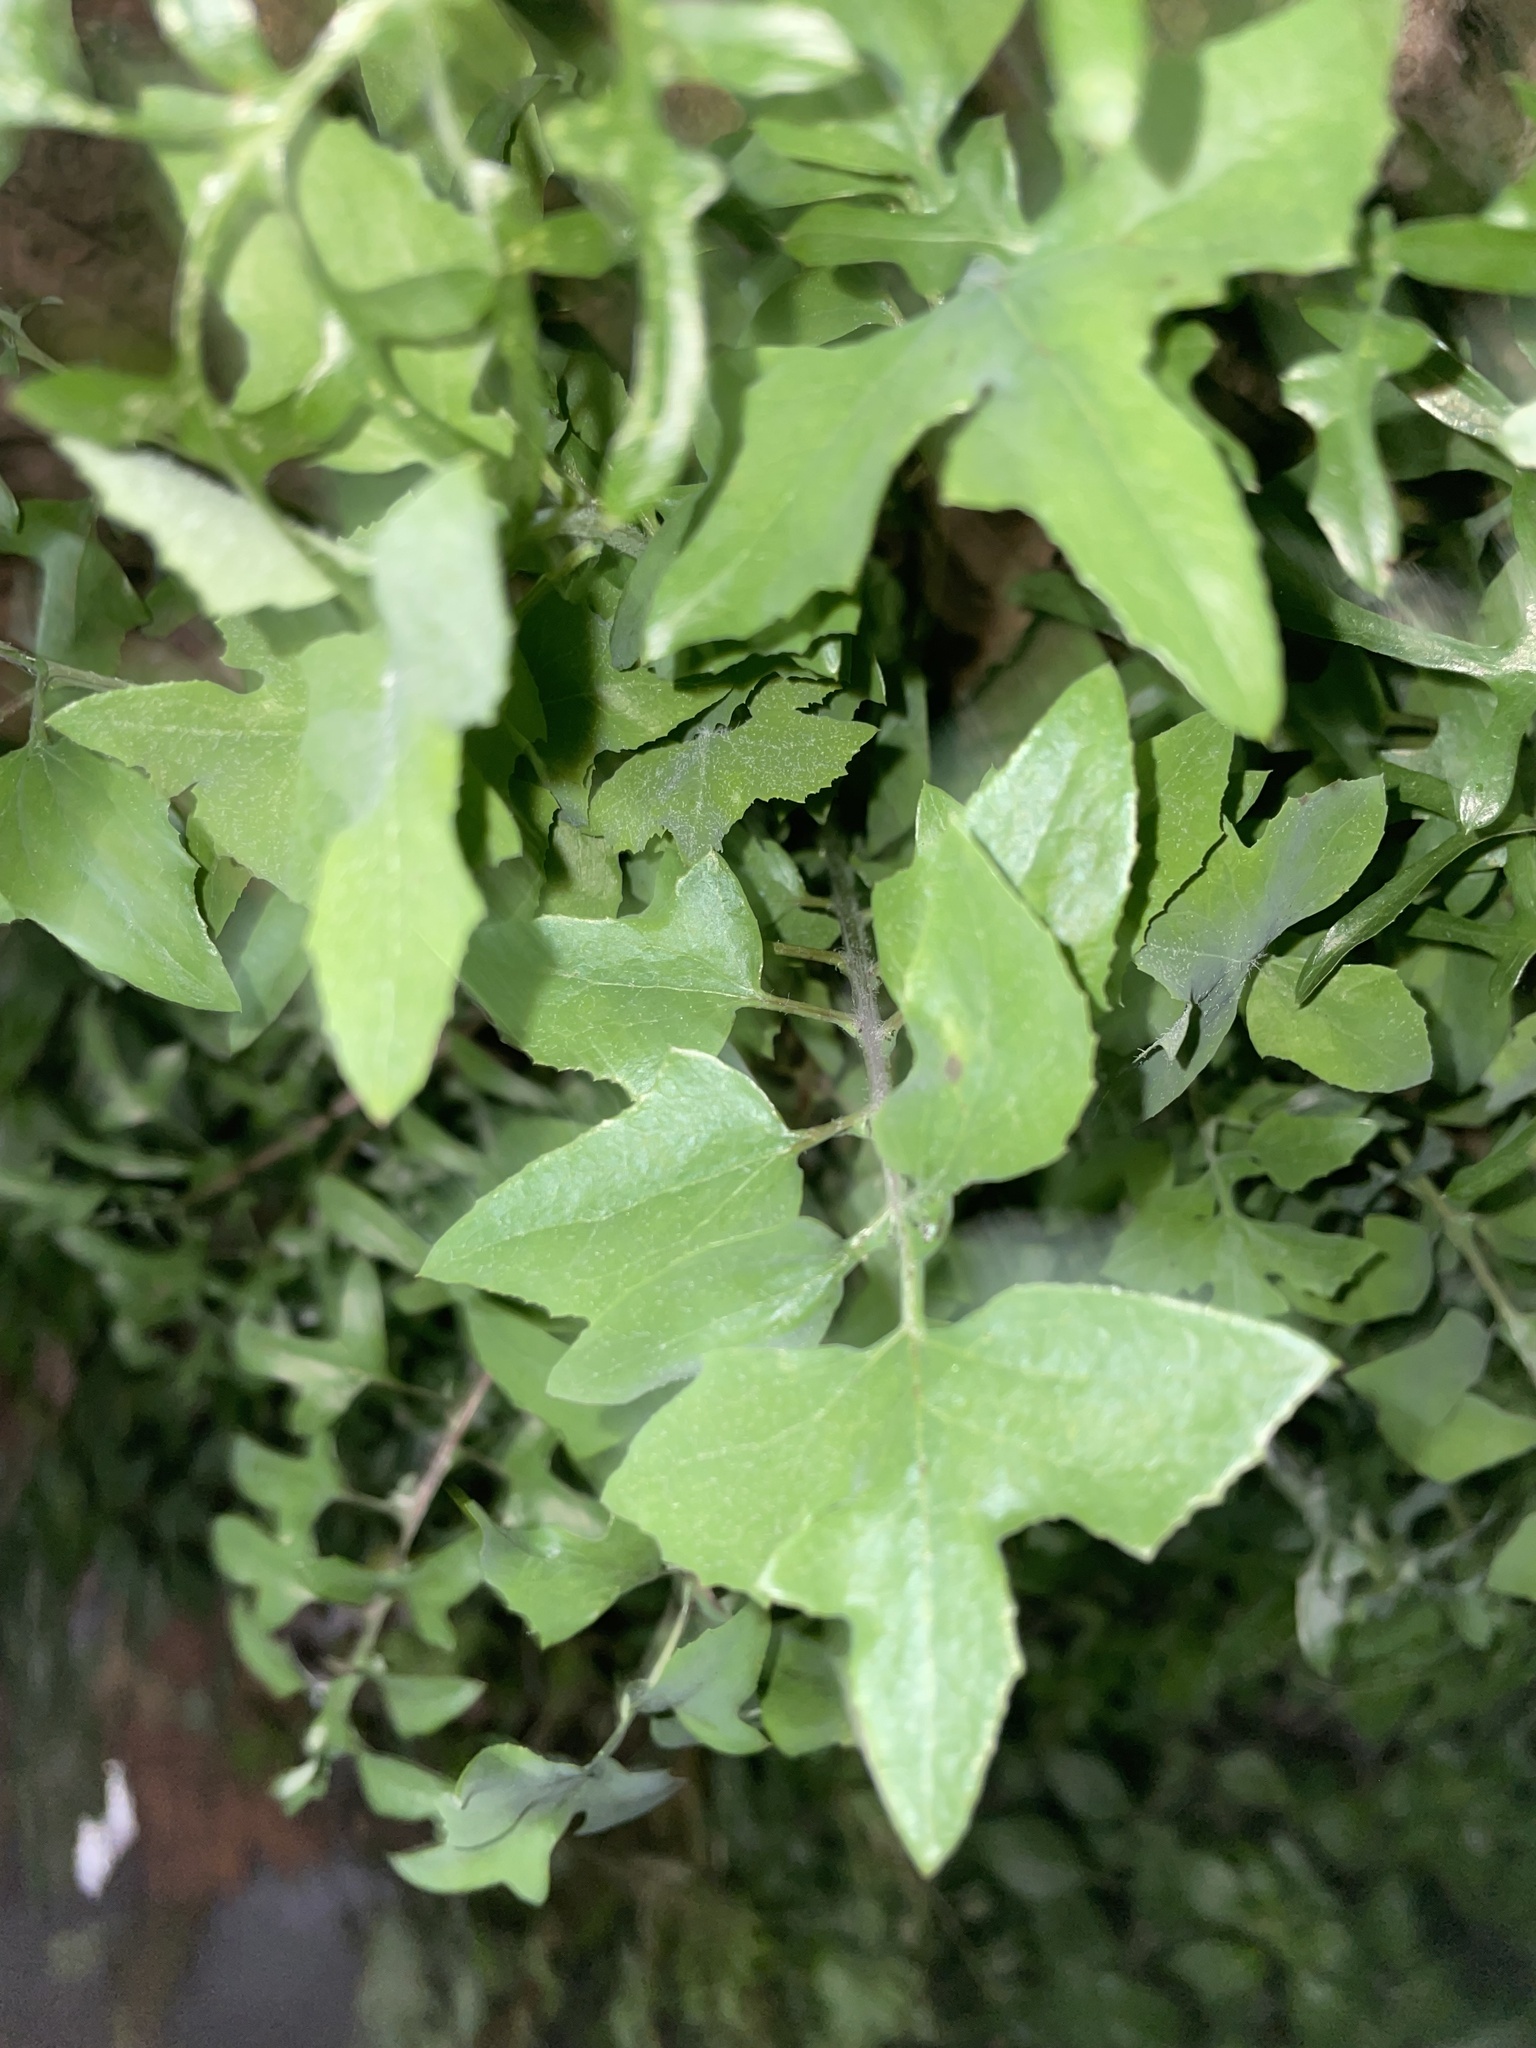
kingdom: Plantae
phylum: Tracheophyta
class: Magnoliopsida
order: Asterales
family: Asteraceae
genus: Sonchus
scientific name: Sonchus tenerrimus
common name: Clammy sowthistle
